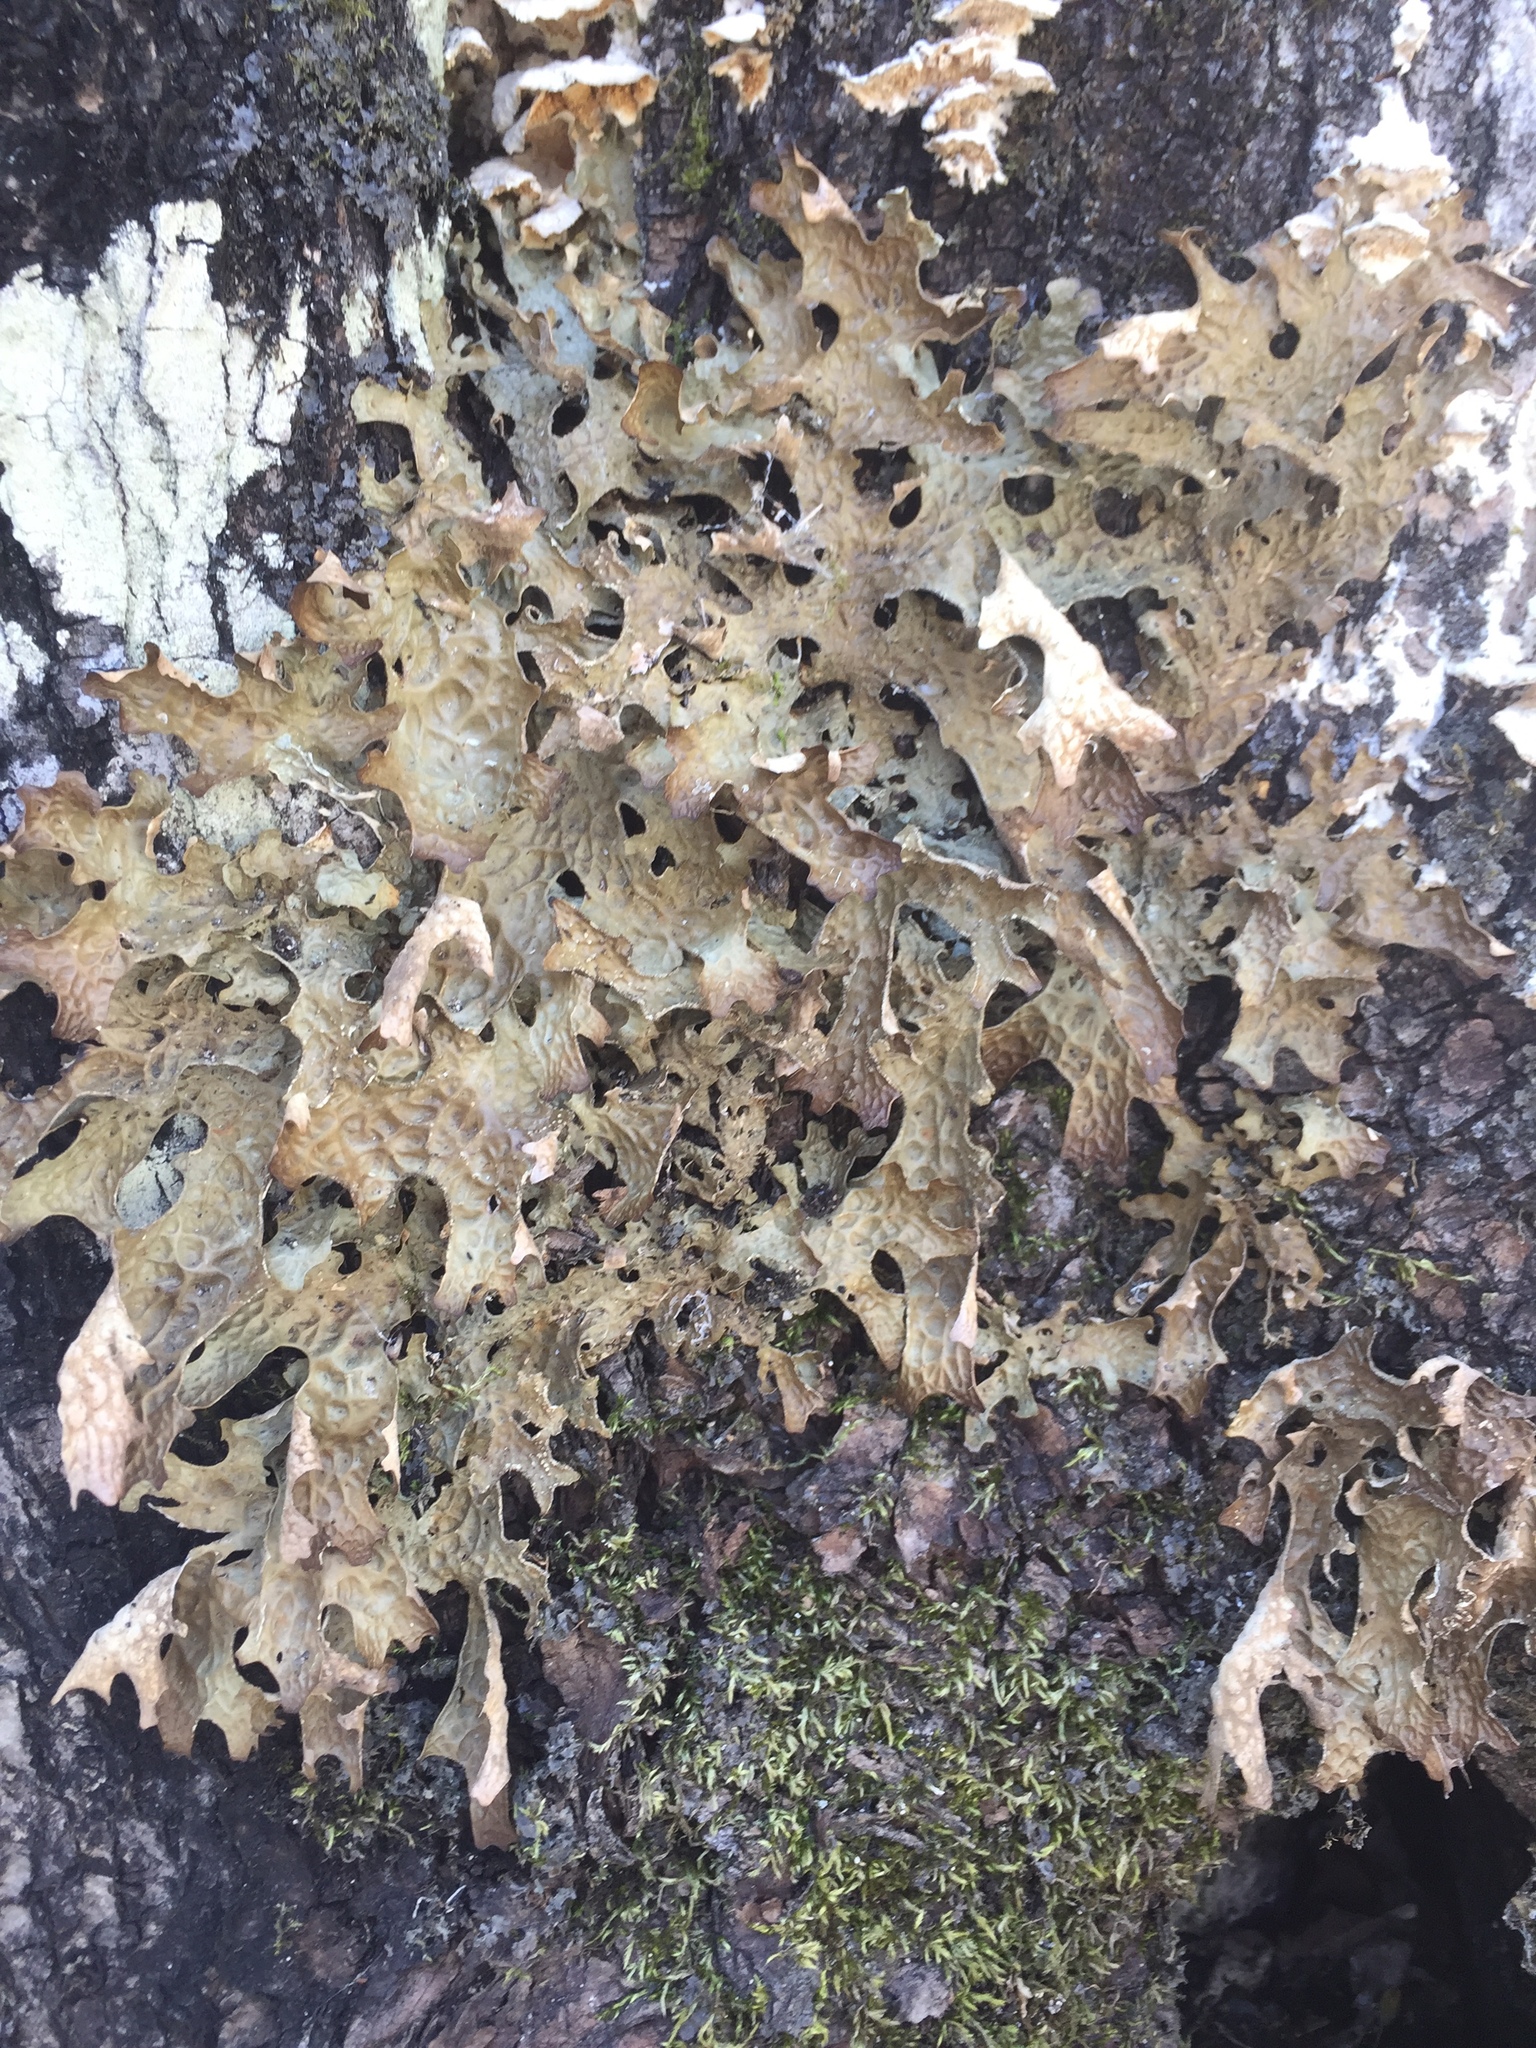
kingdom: Fungi
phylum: Ascomycota
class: Lecanoromycetes
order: Peltigerales
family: Lobariaceae
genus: Lobaria
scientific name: Lobaria pulmonaria
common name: Lungwort
